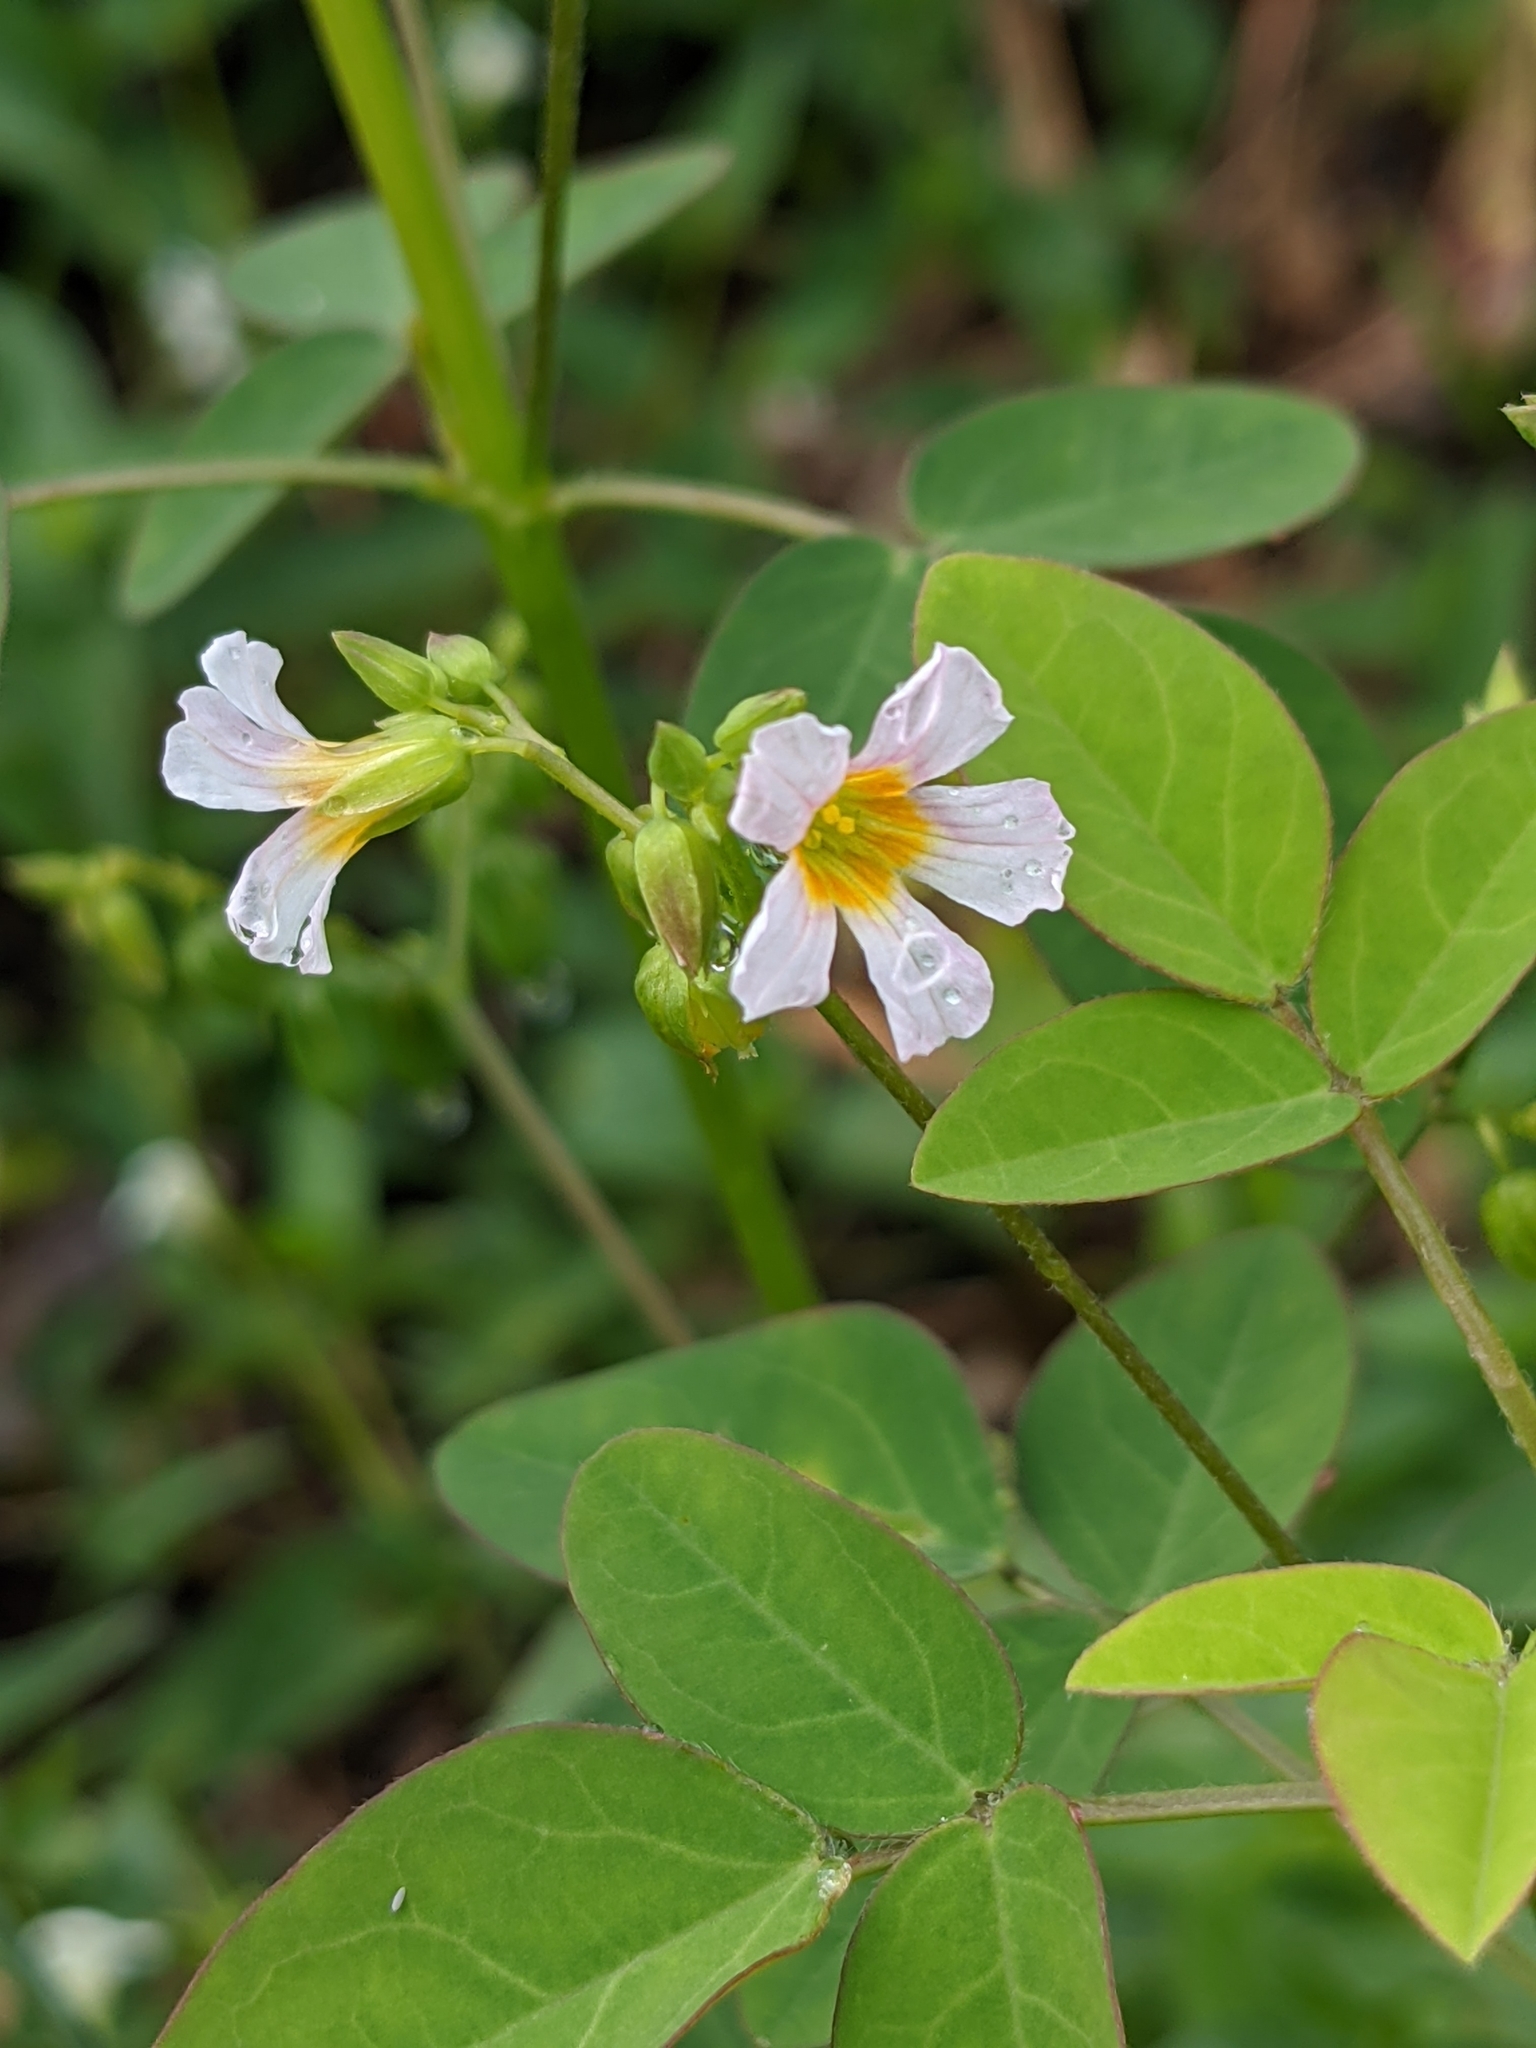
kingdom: Plantae
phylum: Tracheophyta
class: Magnoliopsida
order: Oxalidales
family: Oxalidaceae
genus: Oxalis
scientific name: Oxalis barrelieri
